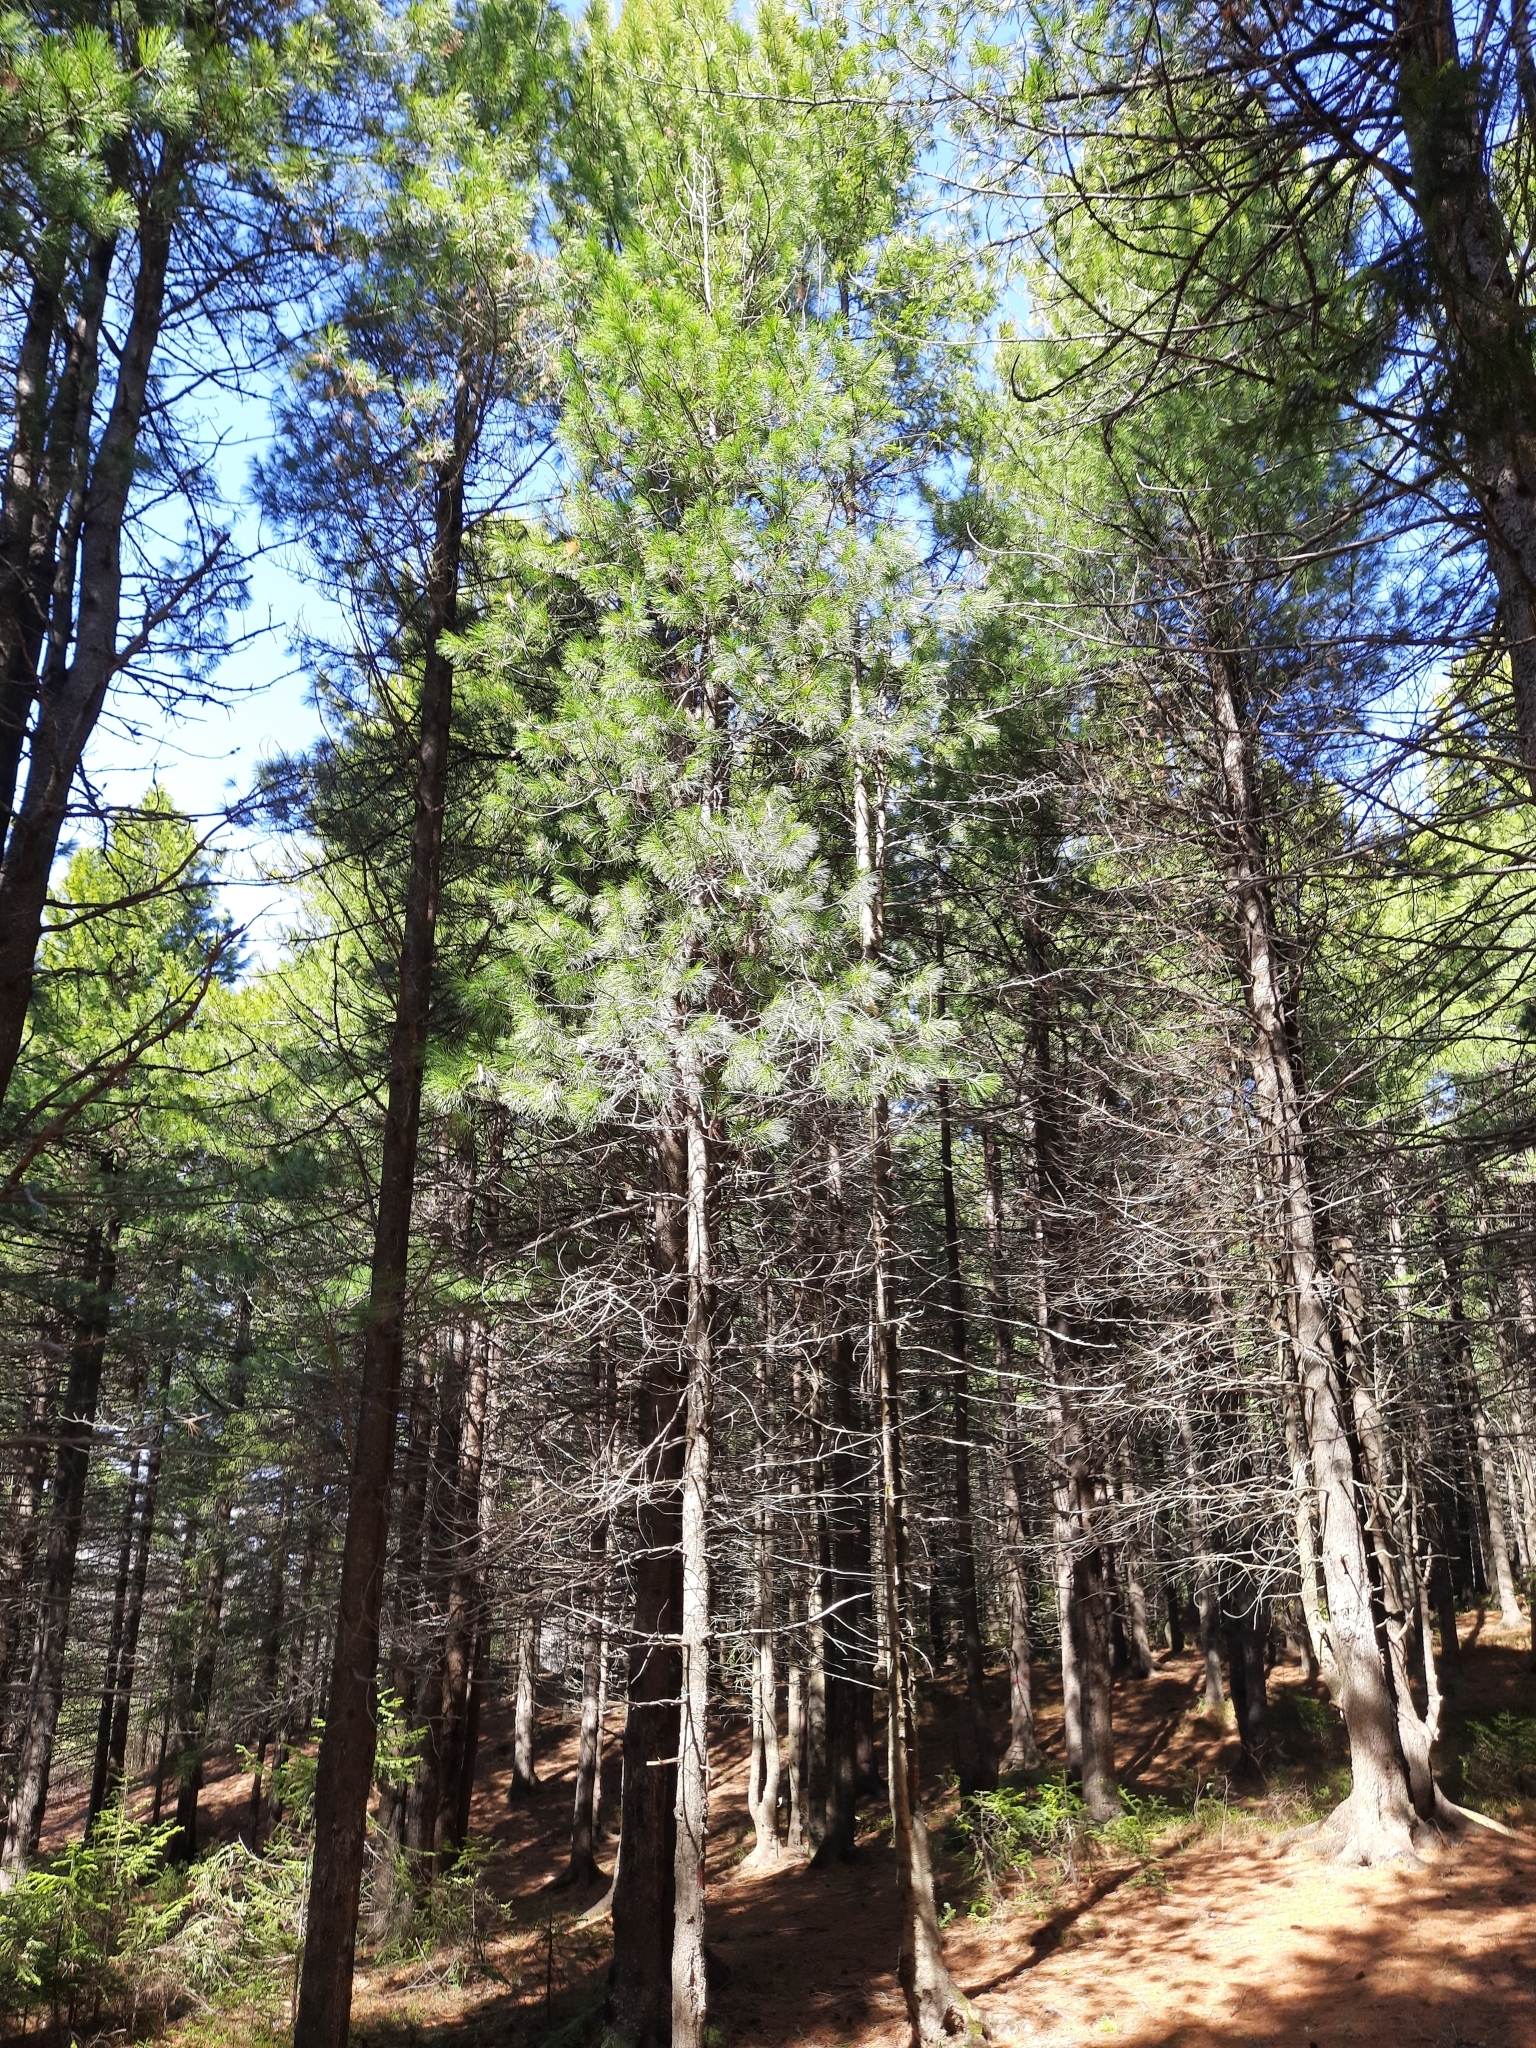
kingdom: Plantae
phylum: Tracheophyta
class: Pinopsida
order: Pinales
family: Pinaceae
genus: Pinus
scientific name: Pinus sibirica
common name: Siberian pine
